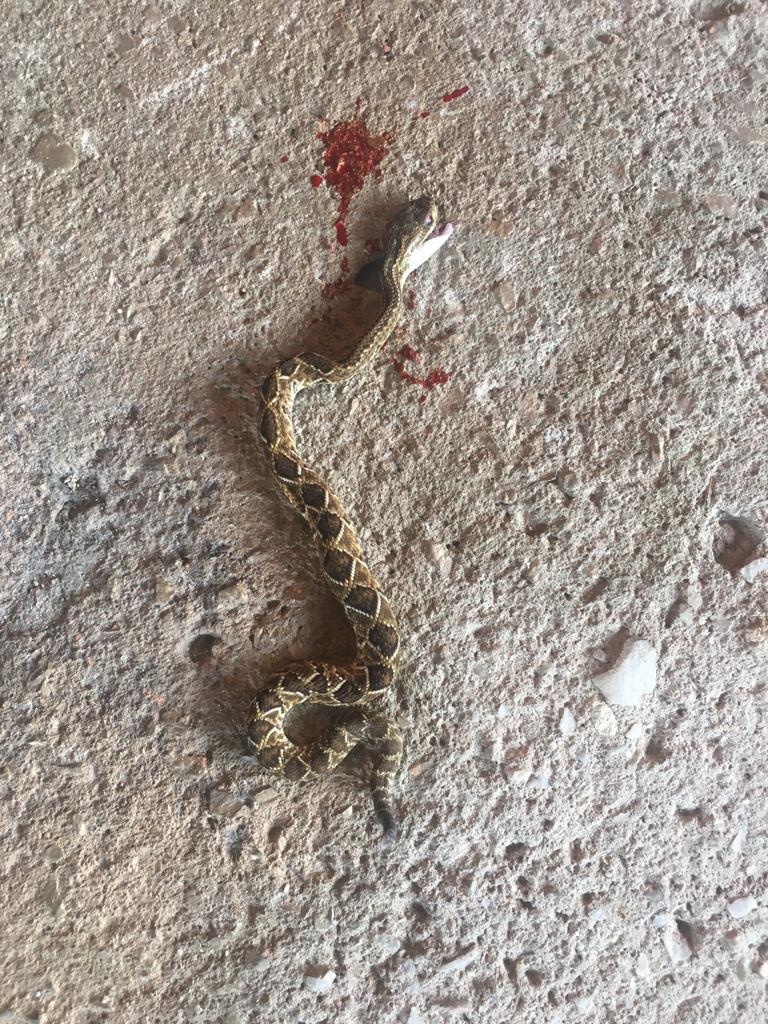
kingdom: Animalia
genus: Crotalus
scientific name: Crotalus durissus
